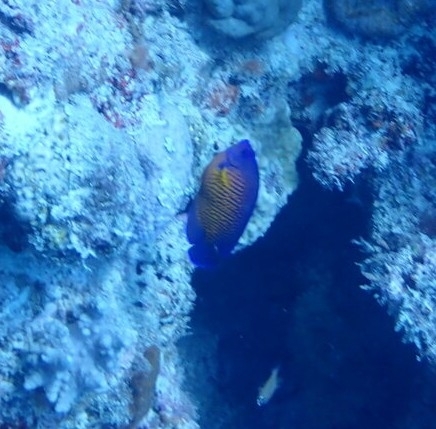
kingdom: Animalia
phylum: Chordata
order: Perciformes
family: Pomacanthidae
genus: Centropyge
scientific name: Centropyge bispinosa
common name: Coral beauty
